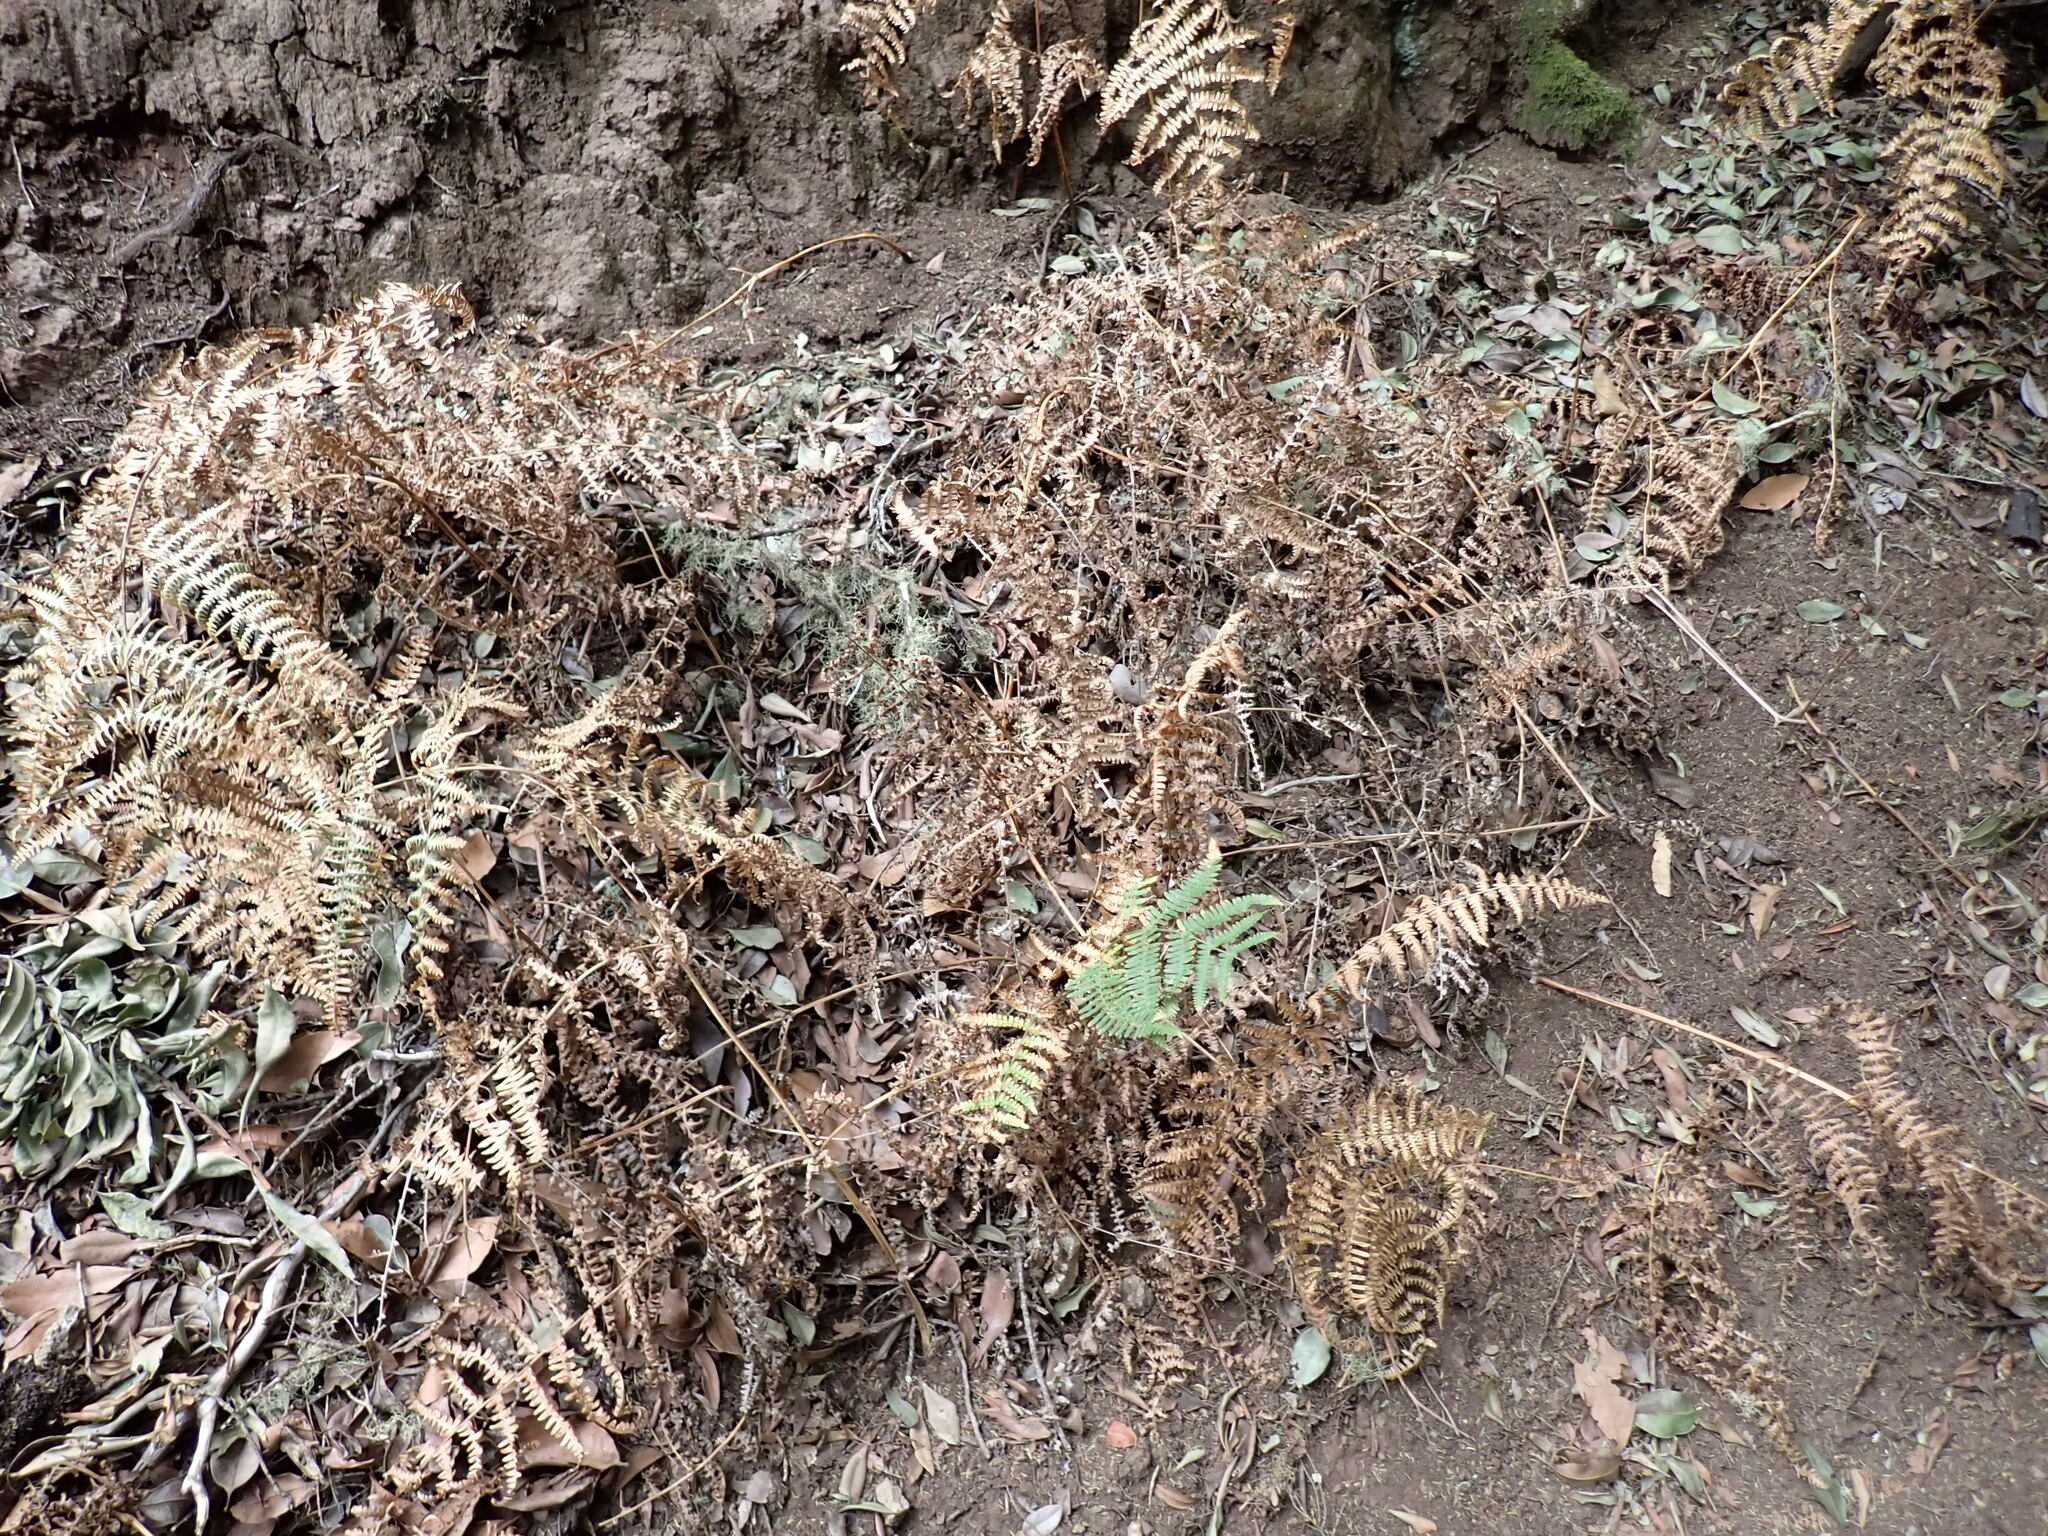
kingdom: Plantae
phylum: Tracheophyta
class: Polypodiopsida
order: Polypodiales
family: Dennstaedtiaceae
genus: Pteridium
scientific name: Pteridium aquilinum
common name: Bracken
